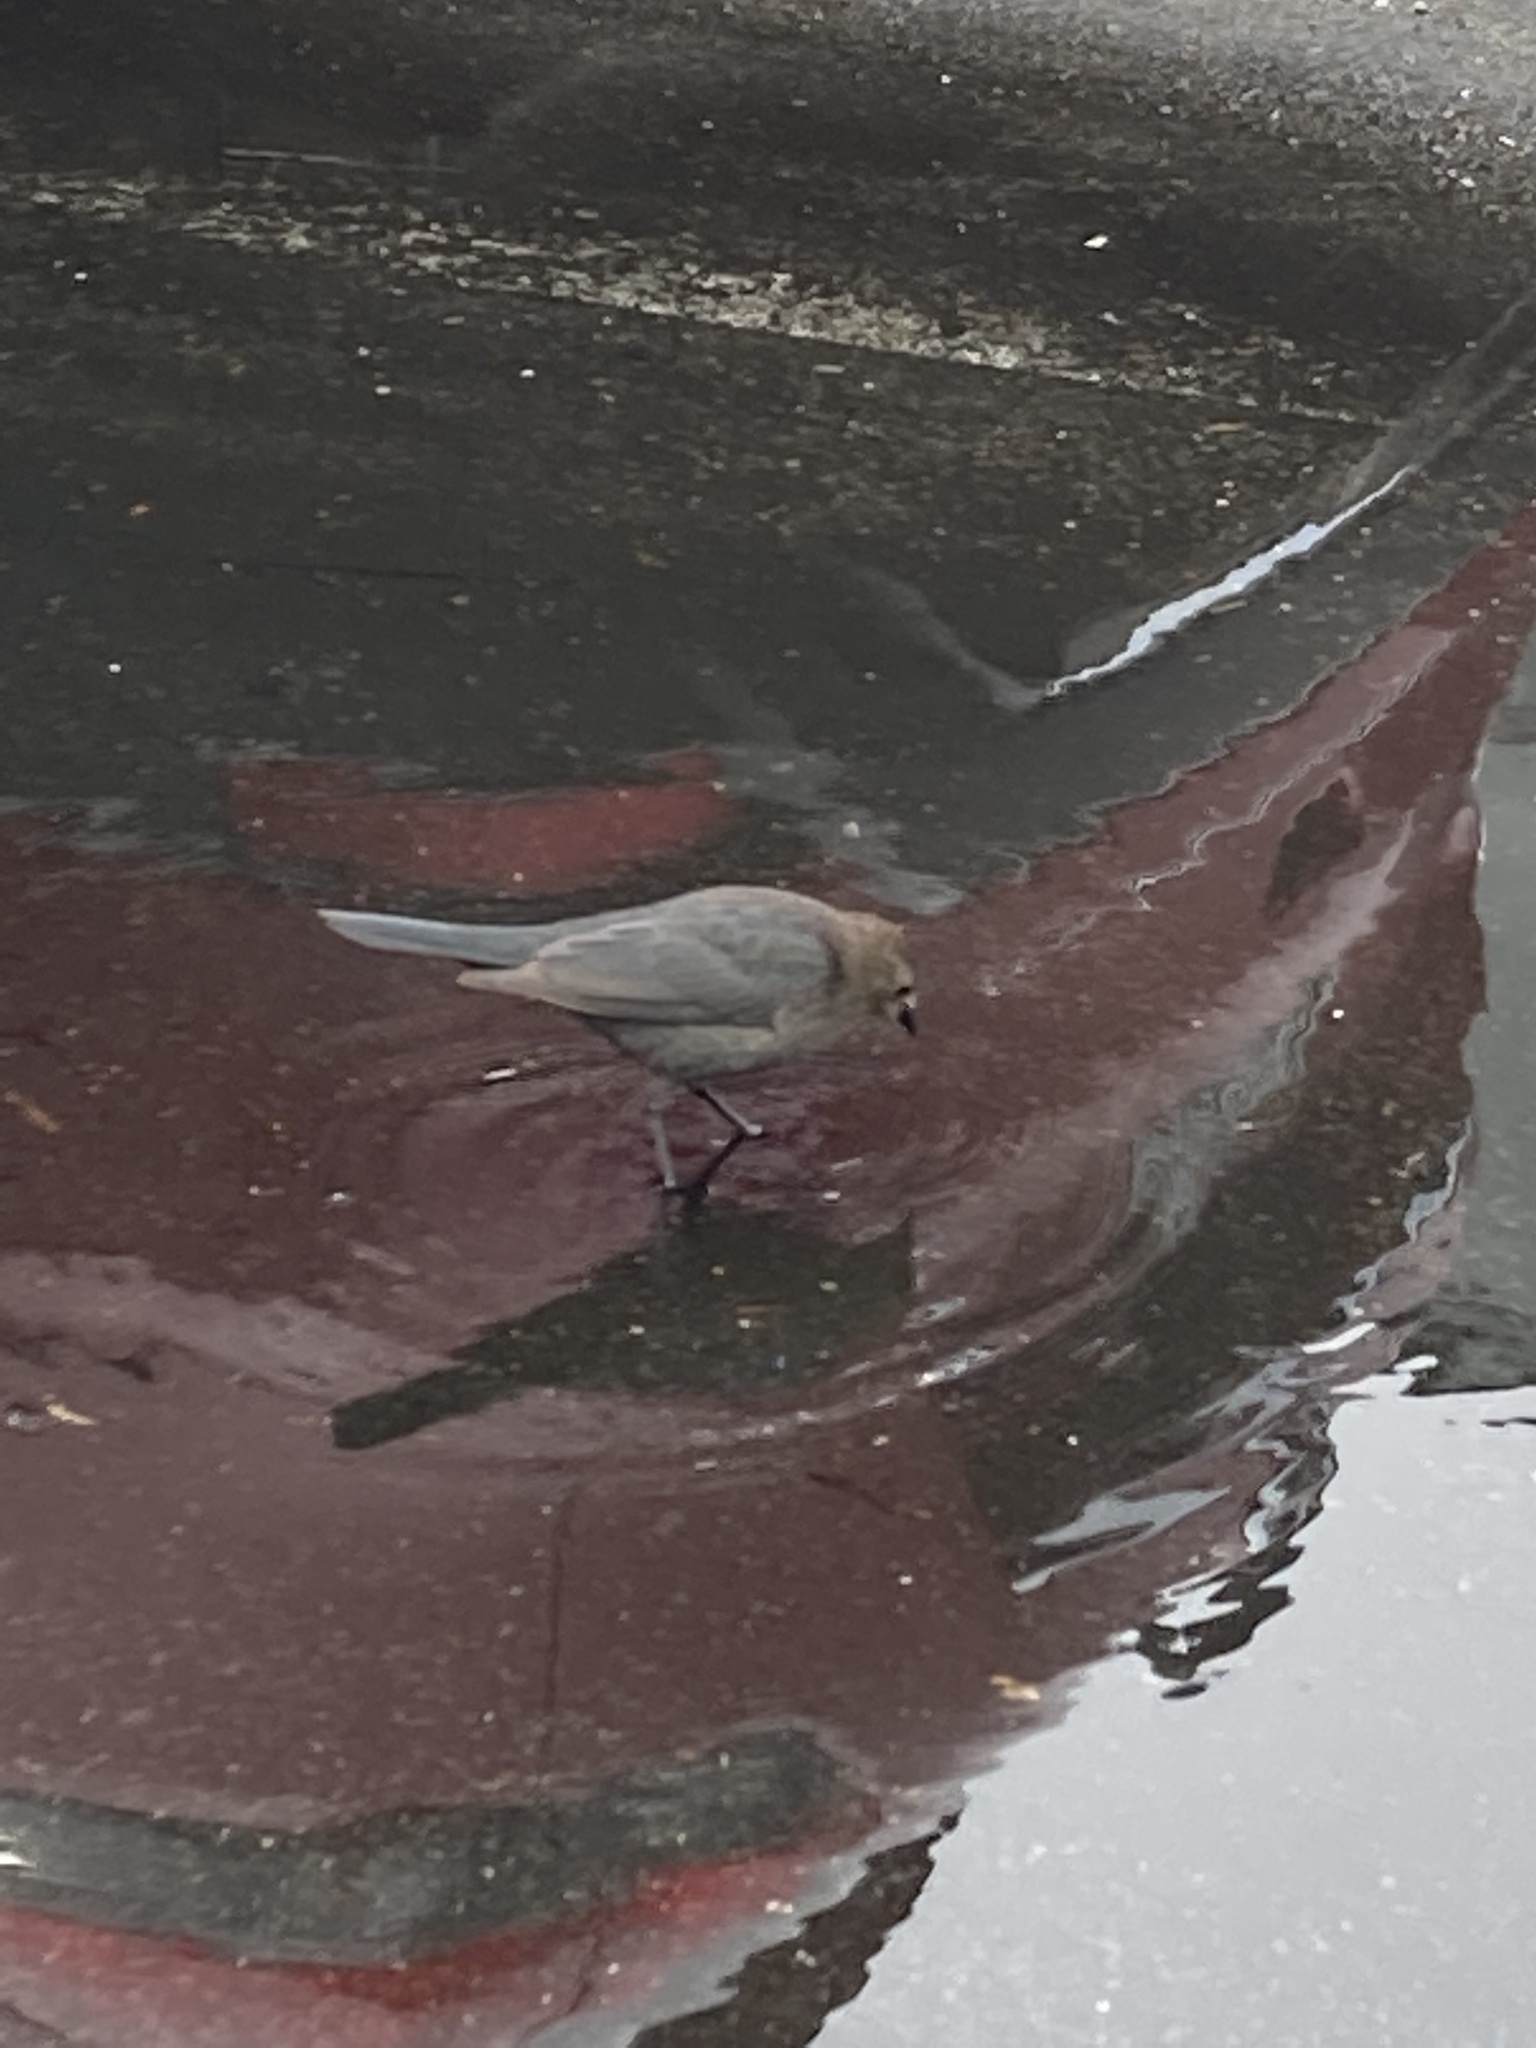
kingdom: Animalia
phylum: Chordata
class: Aves
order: Passeriformes
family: Icteridae
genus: Euphagus
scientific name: Euphagus cyanocephalus
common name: Brewer's blackbird
